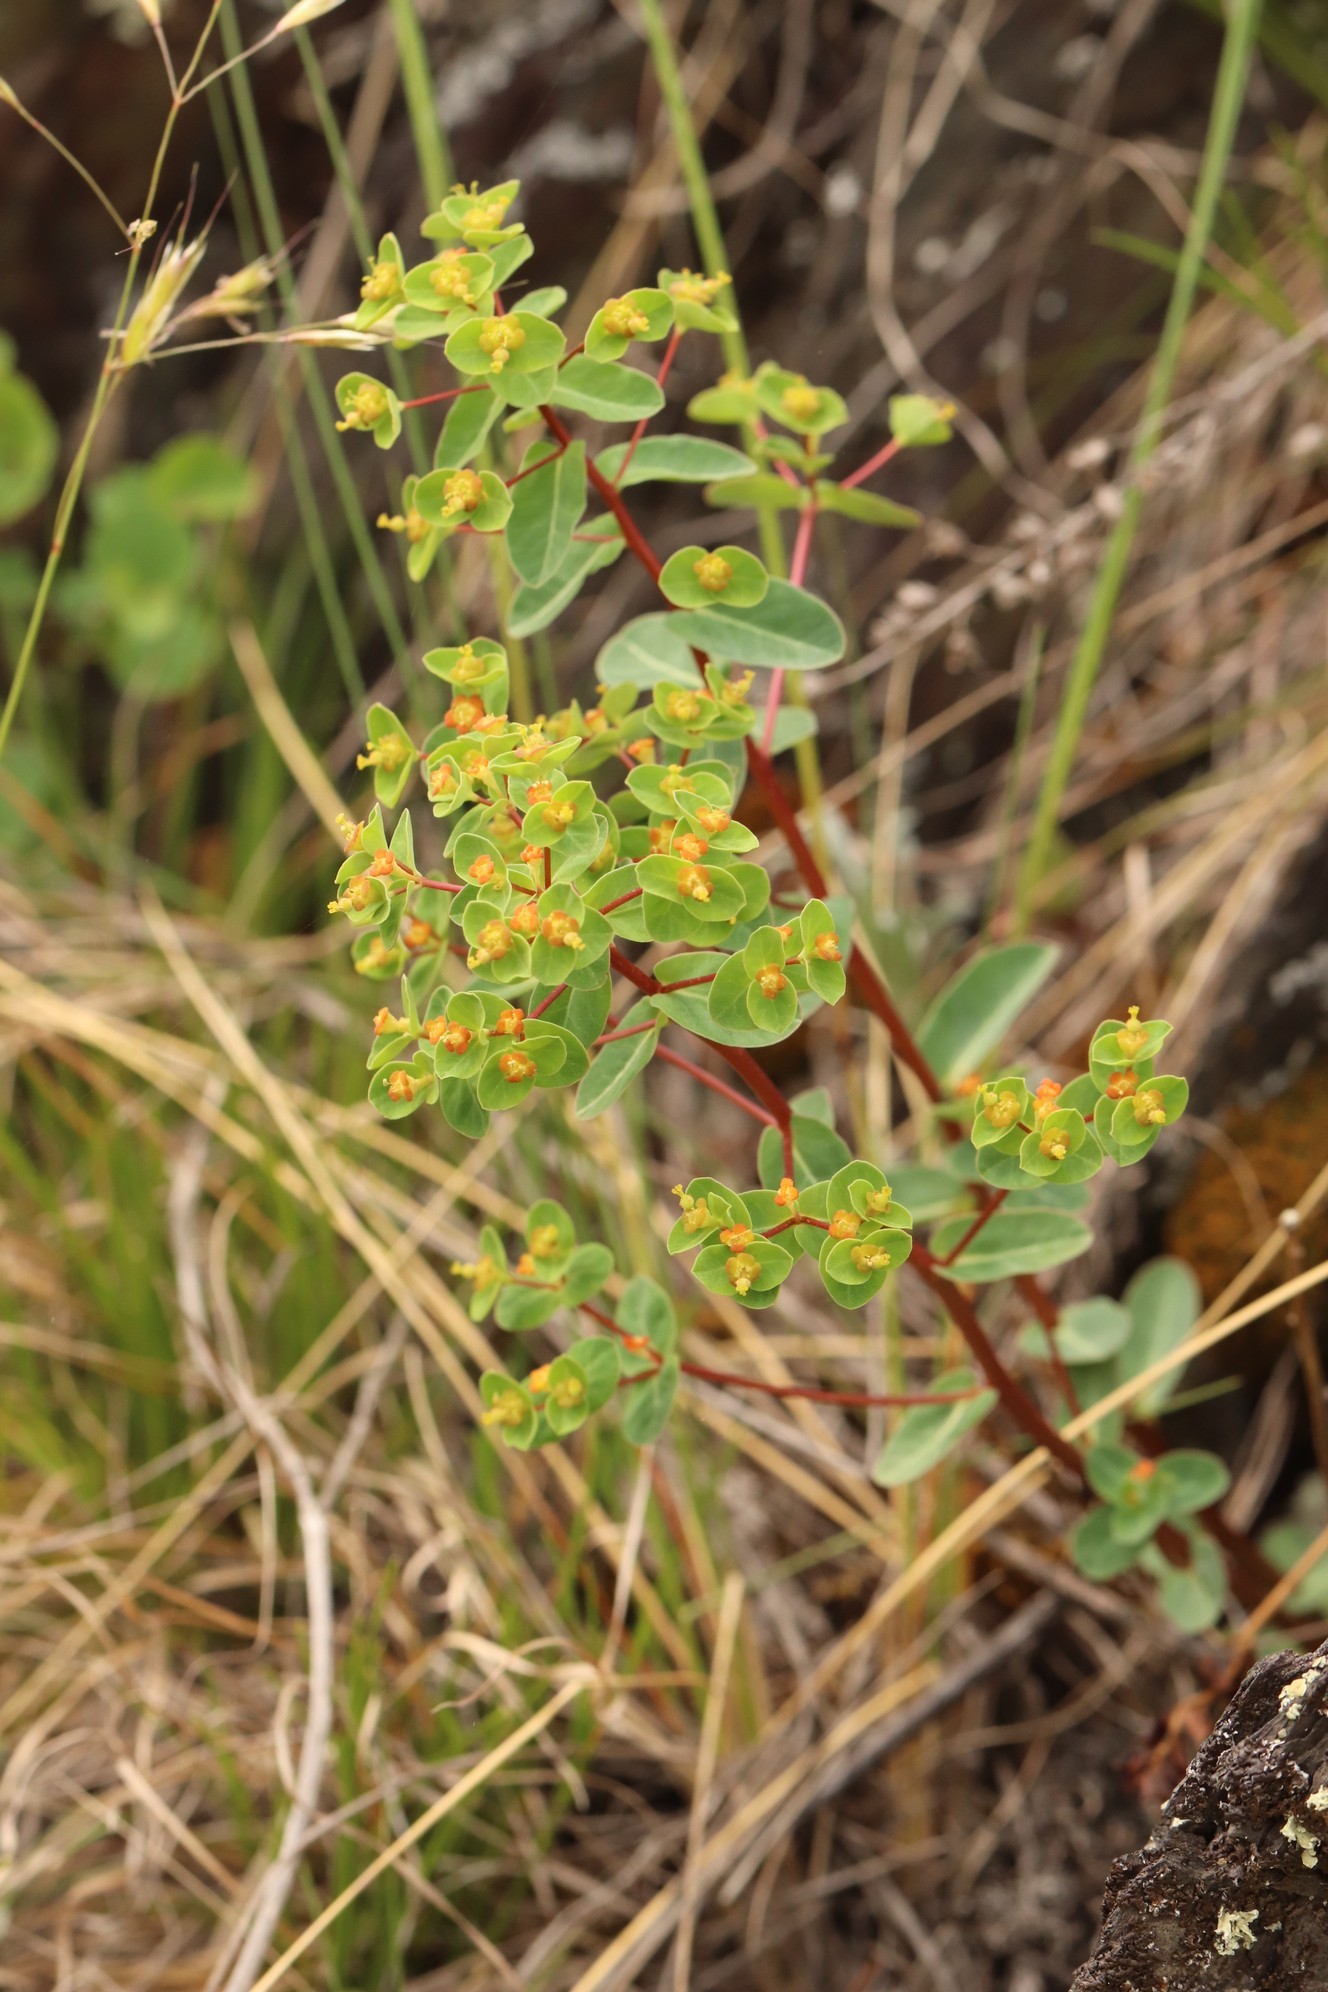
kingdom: Plantae
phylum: Tracheophyta
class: Magnoliopsida
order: Malpighiales
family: Euphorbiaceae
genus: Euphorbia
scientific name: Euphorbia alpina
